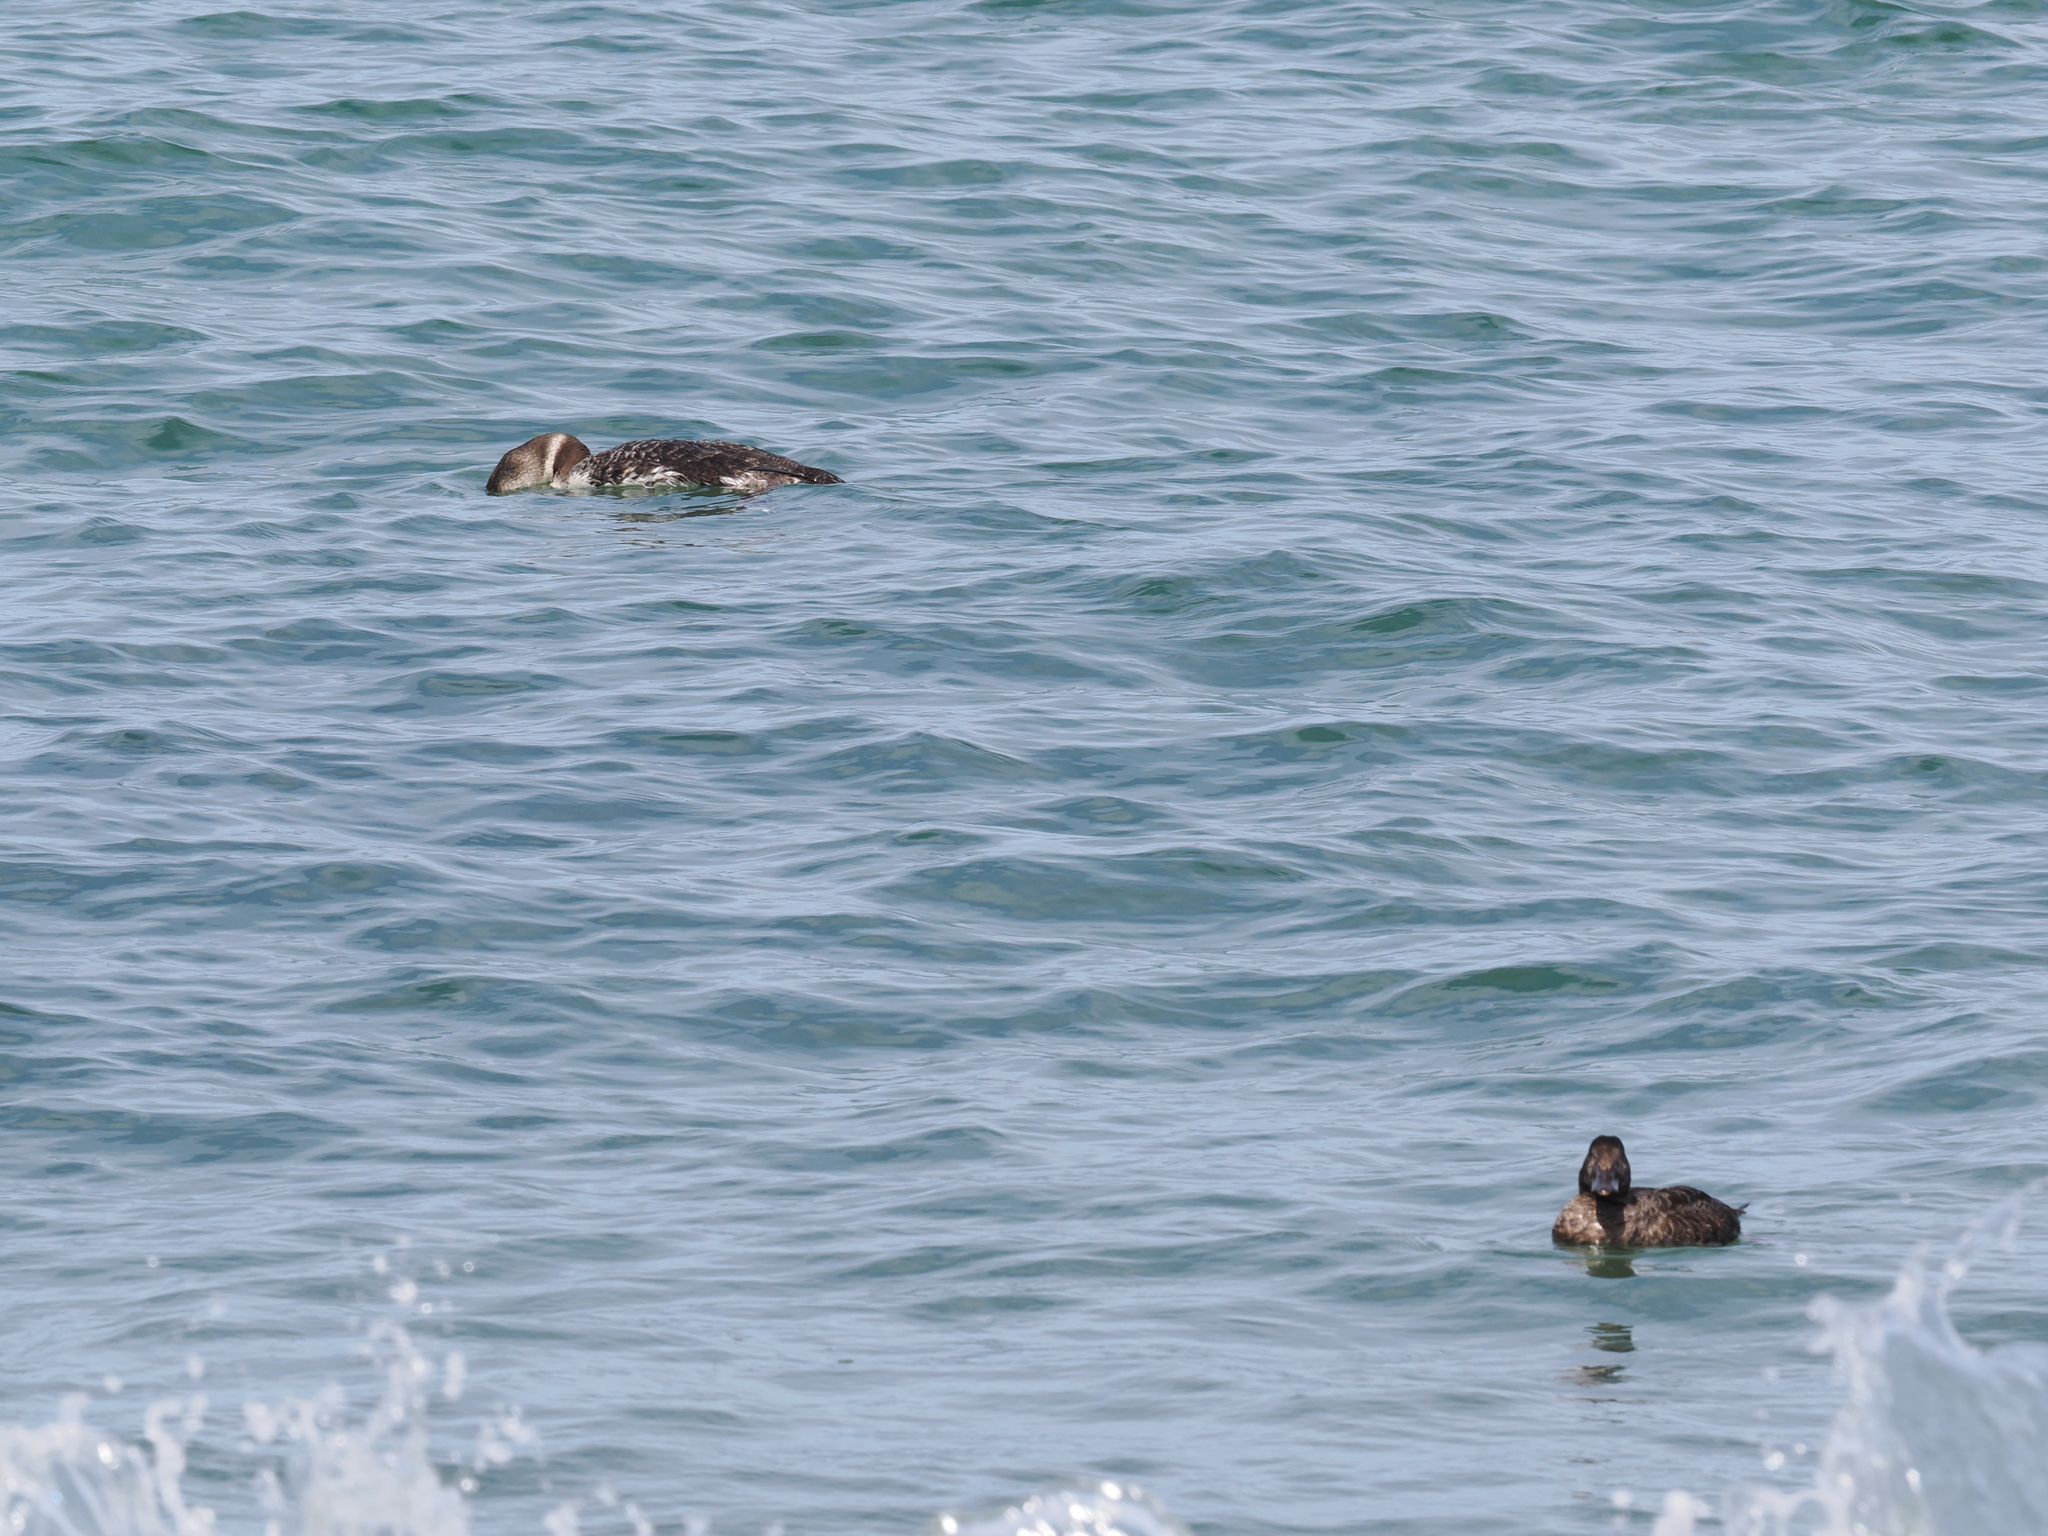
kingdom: Animalia
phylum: Chordata
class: Aves
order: Anseriformes
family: Anatidae
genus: Melanitta
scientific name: Melanitta perspicillata
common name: Surf scoter
